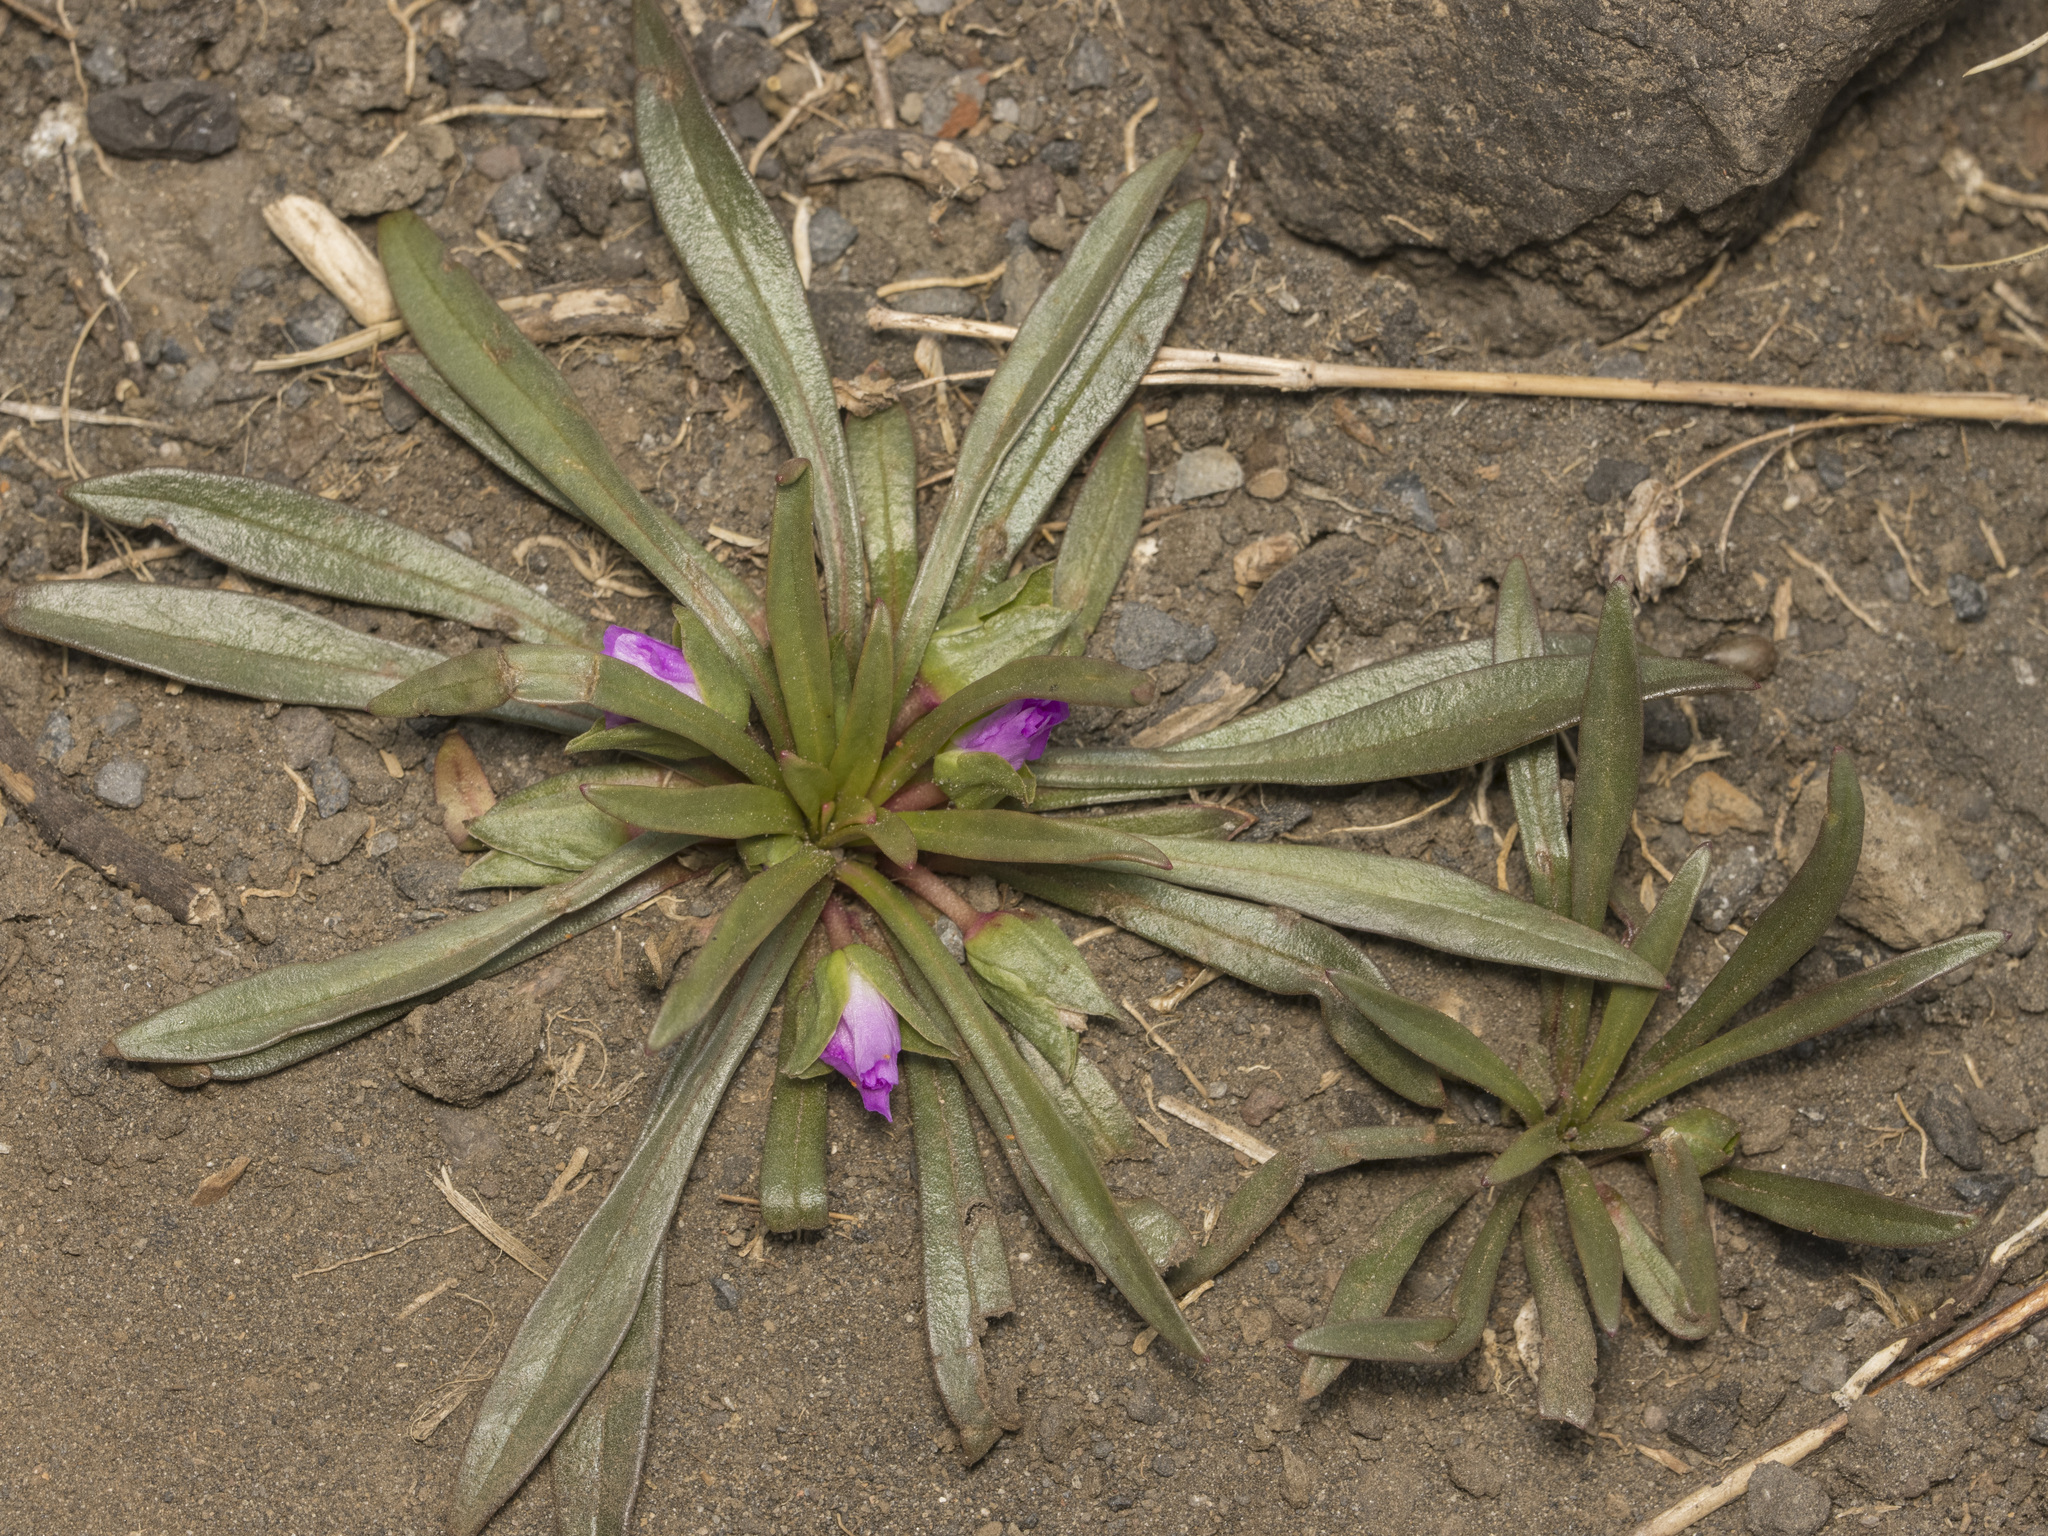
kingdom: Plantae
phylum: Tracheophyta
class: Magnoliopsida
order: Caryophyllales
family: Montiaceae
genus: Calandrinia
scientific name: Calandrinia colchaguensis
